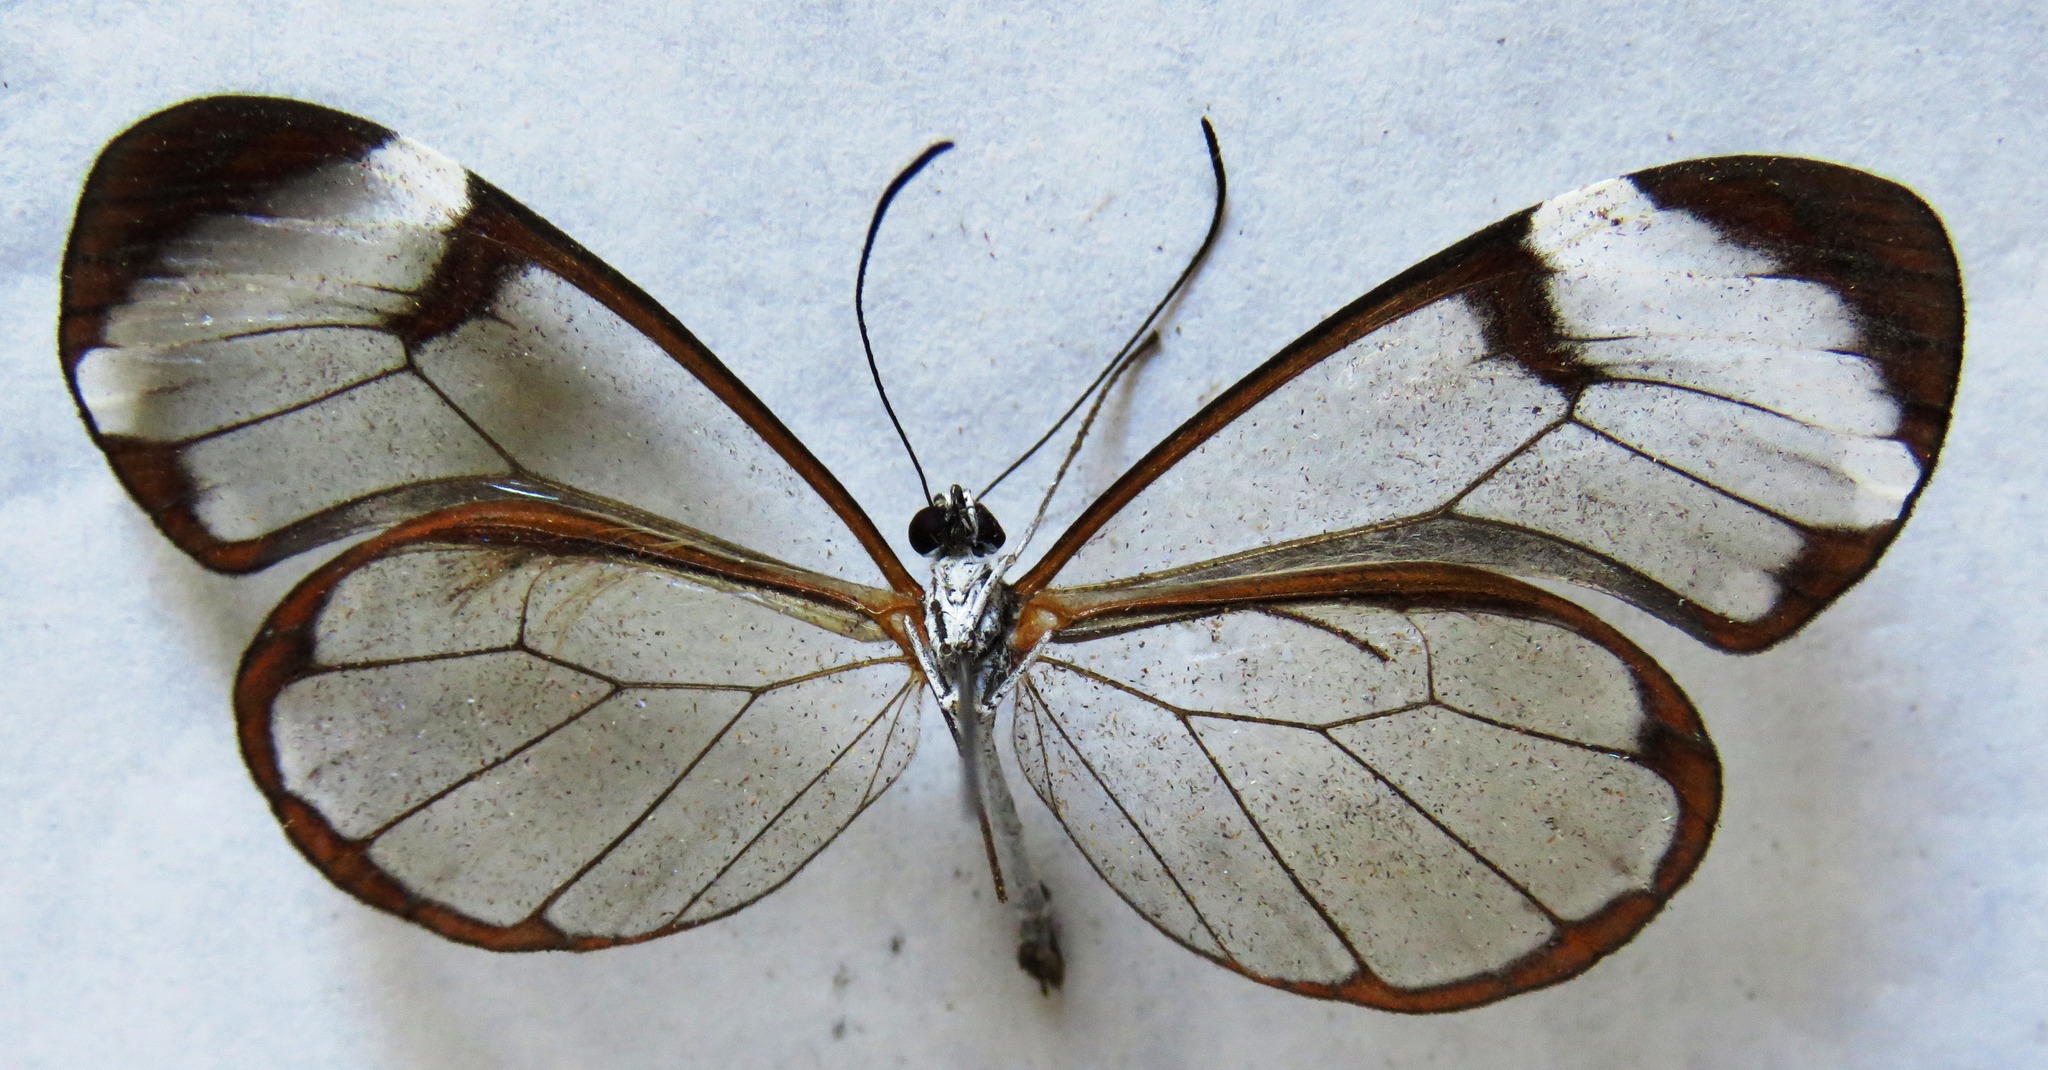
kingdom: Animalia
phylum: Arthropoda
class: Insecta
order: Lepidoptera
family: Nymphalidae
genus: Greta
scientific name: Greta morgane
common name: Thick-tipped greta
